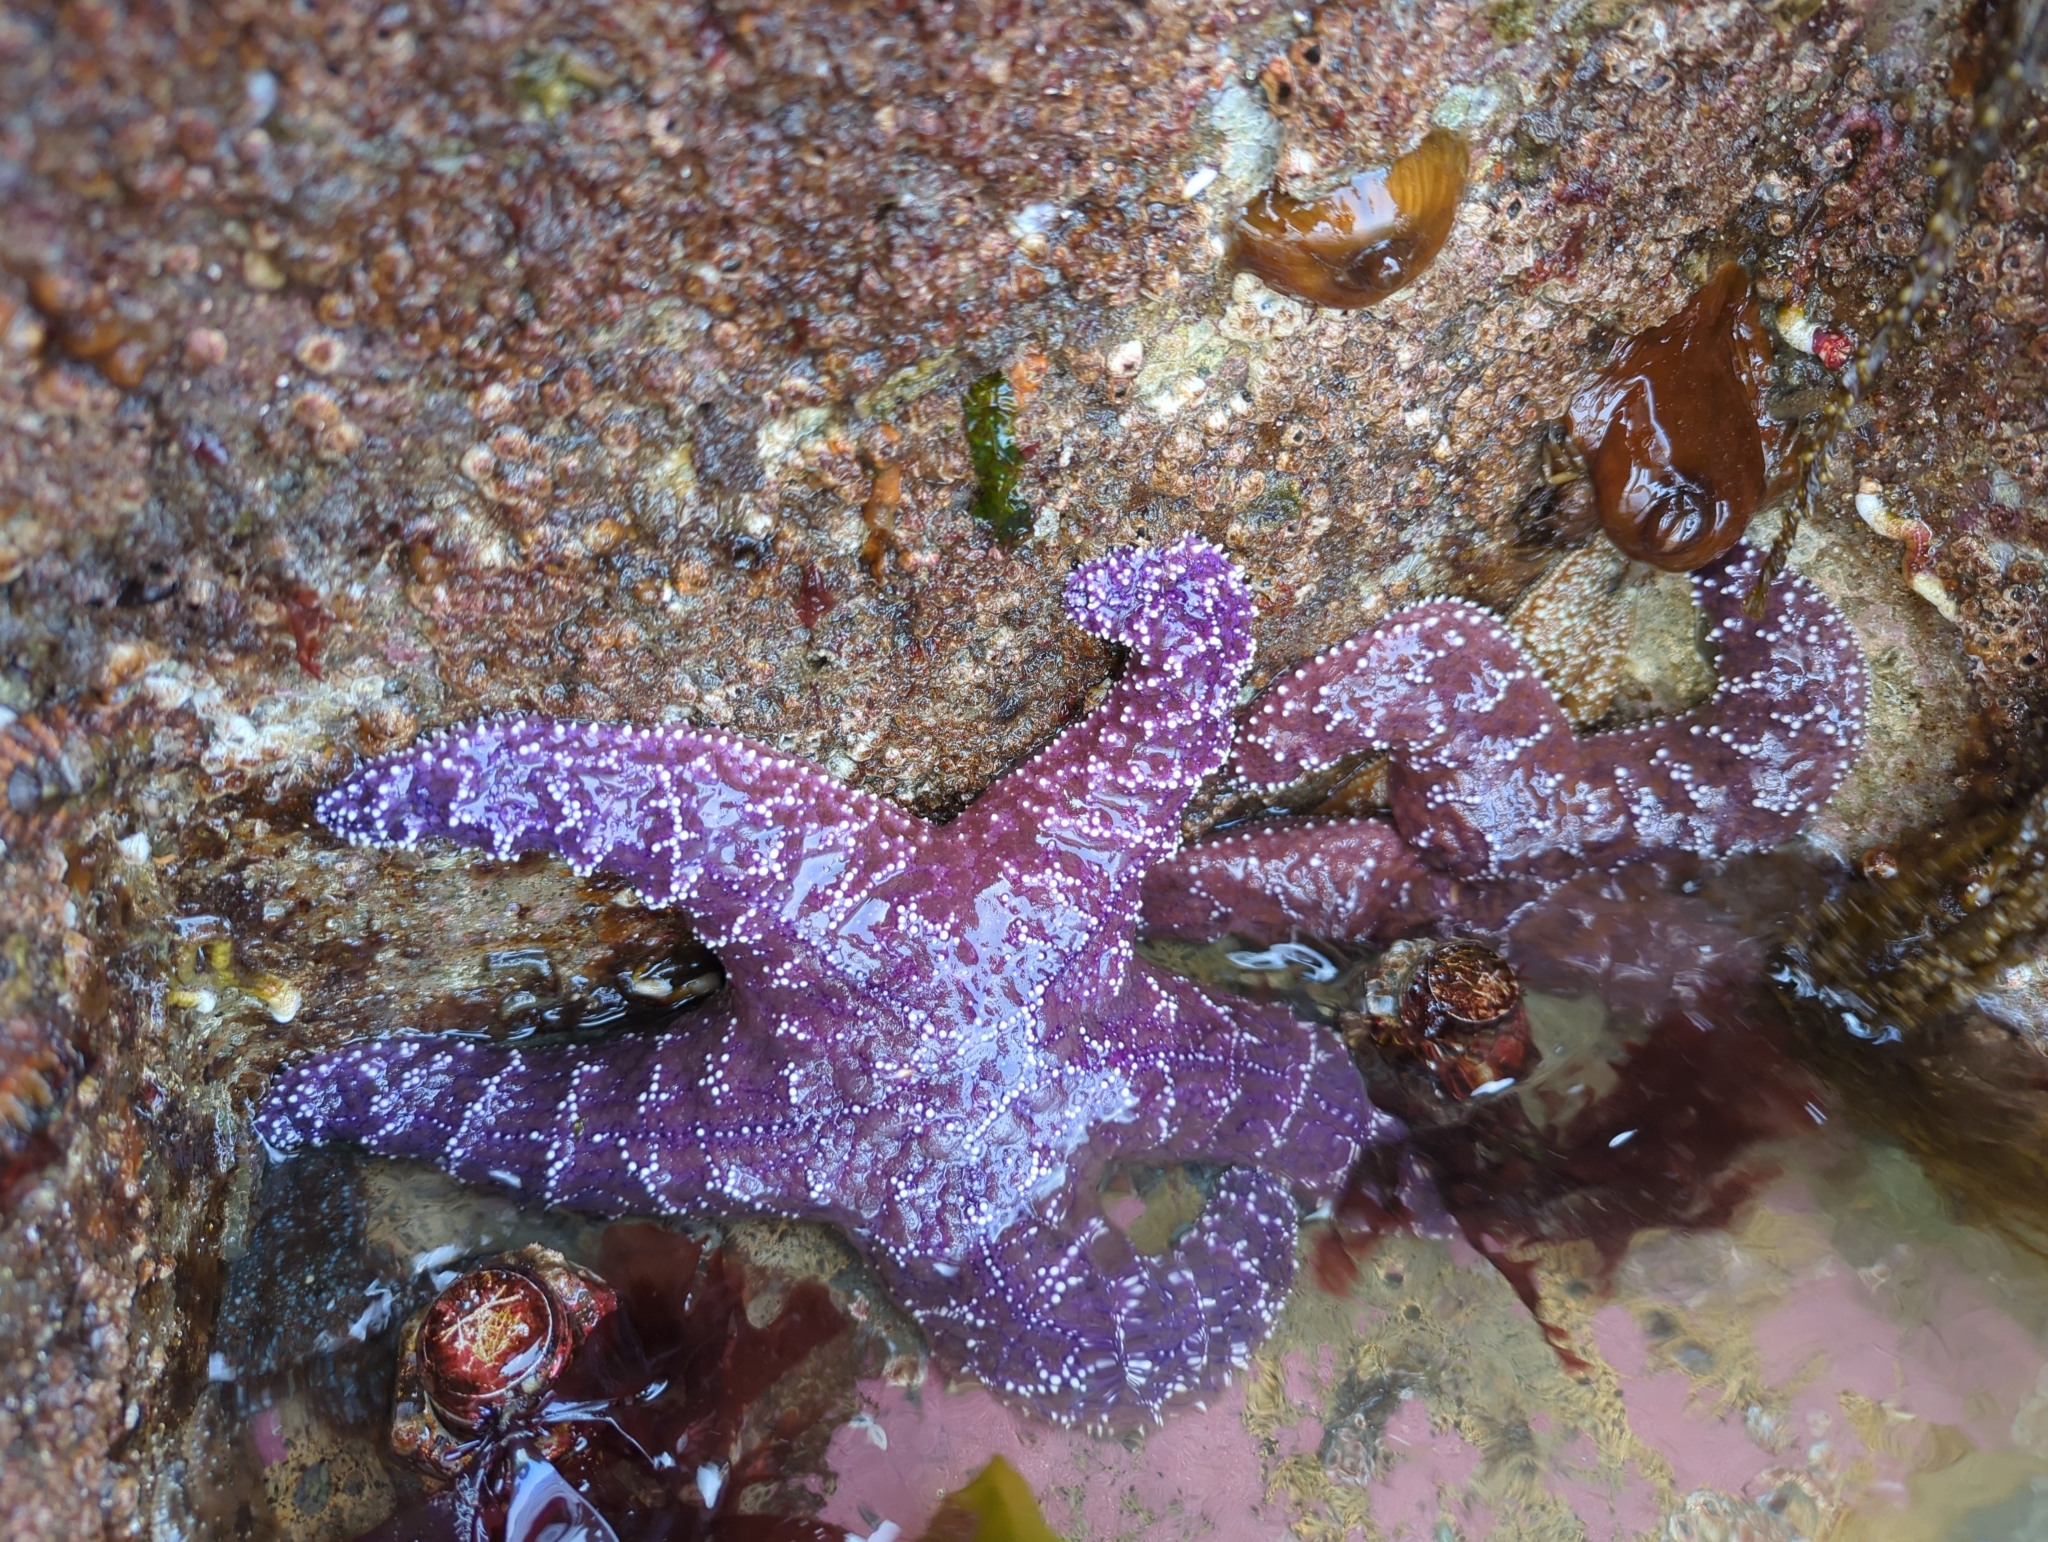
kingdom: Animalia
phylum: Echinodermata
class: Asteroidea
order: Forcipulatida
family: Asteriidae
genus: Pisaster
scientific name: Pisaster ochraceus
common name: Ochre stars
